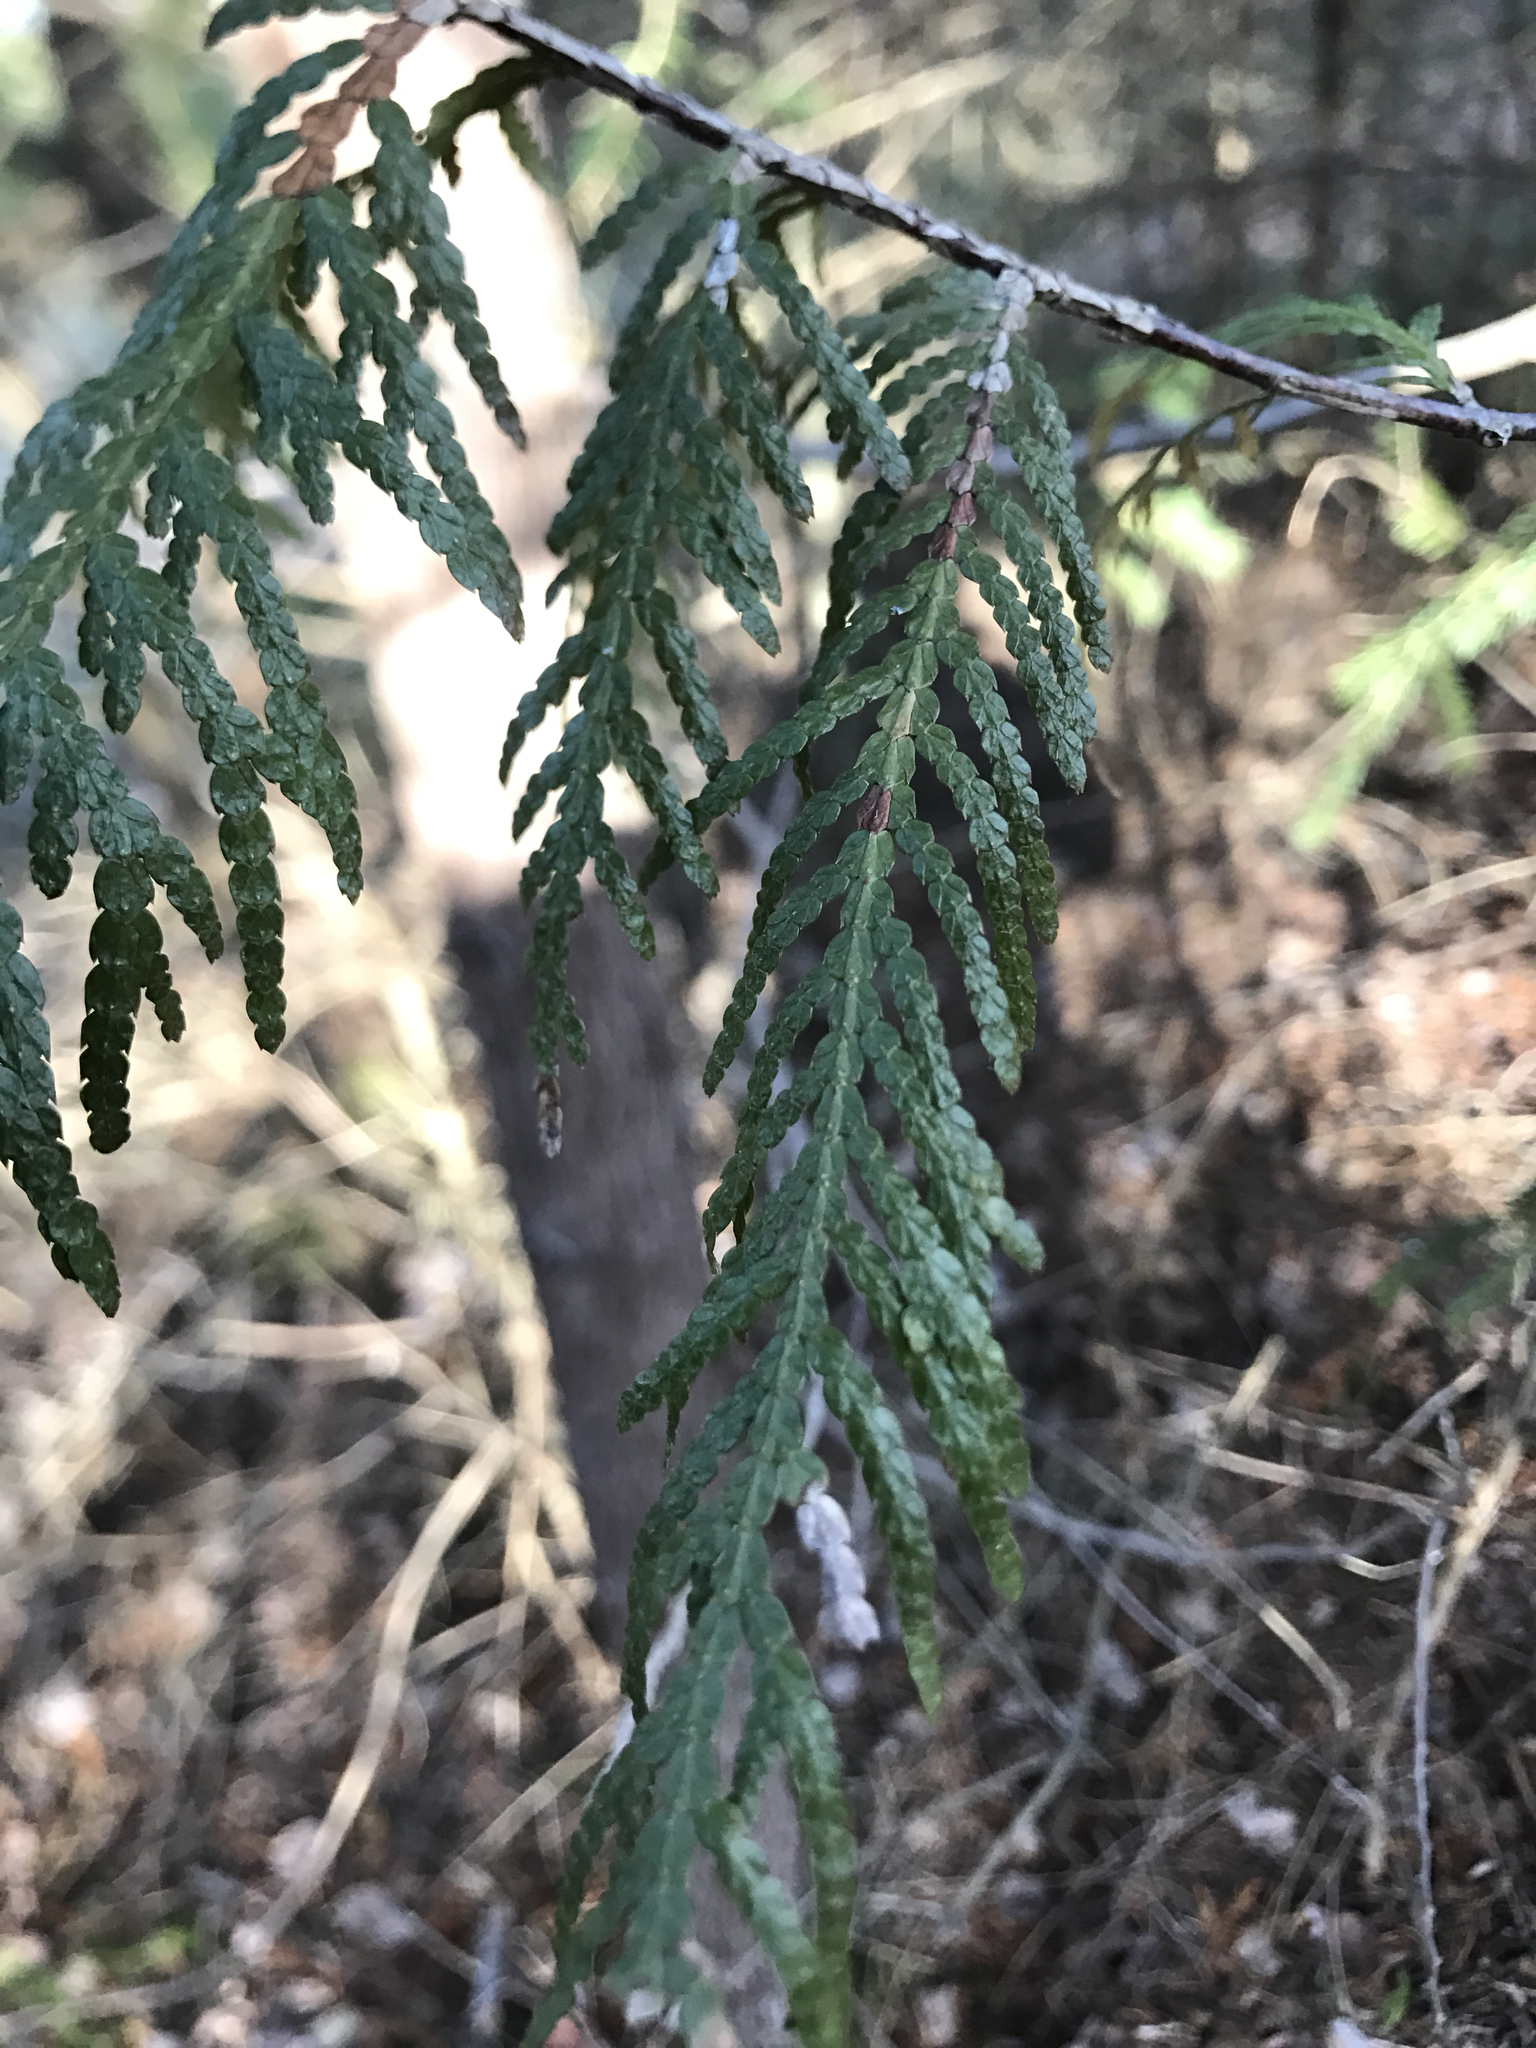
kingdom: Plantae
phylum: Tracheophyta
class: Pinopsida
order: Pinales
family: Cupressaceae
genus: Thuja
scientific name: Thuja occidentalis
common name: Northern white-cedar
